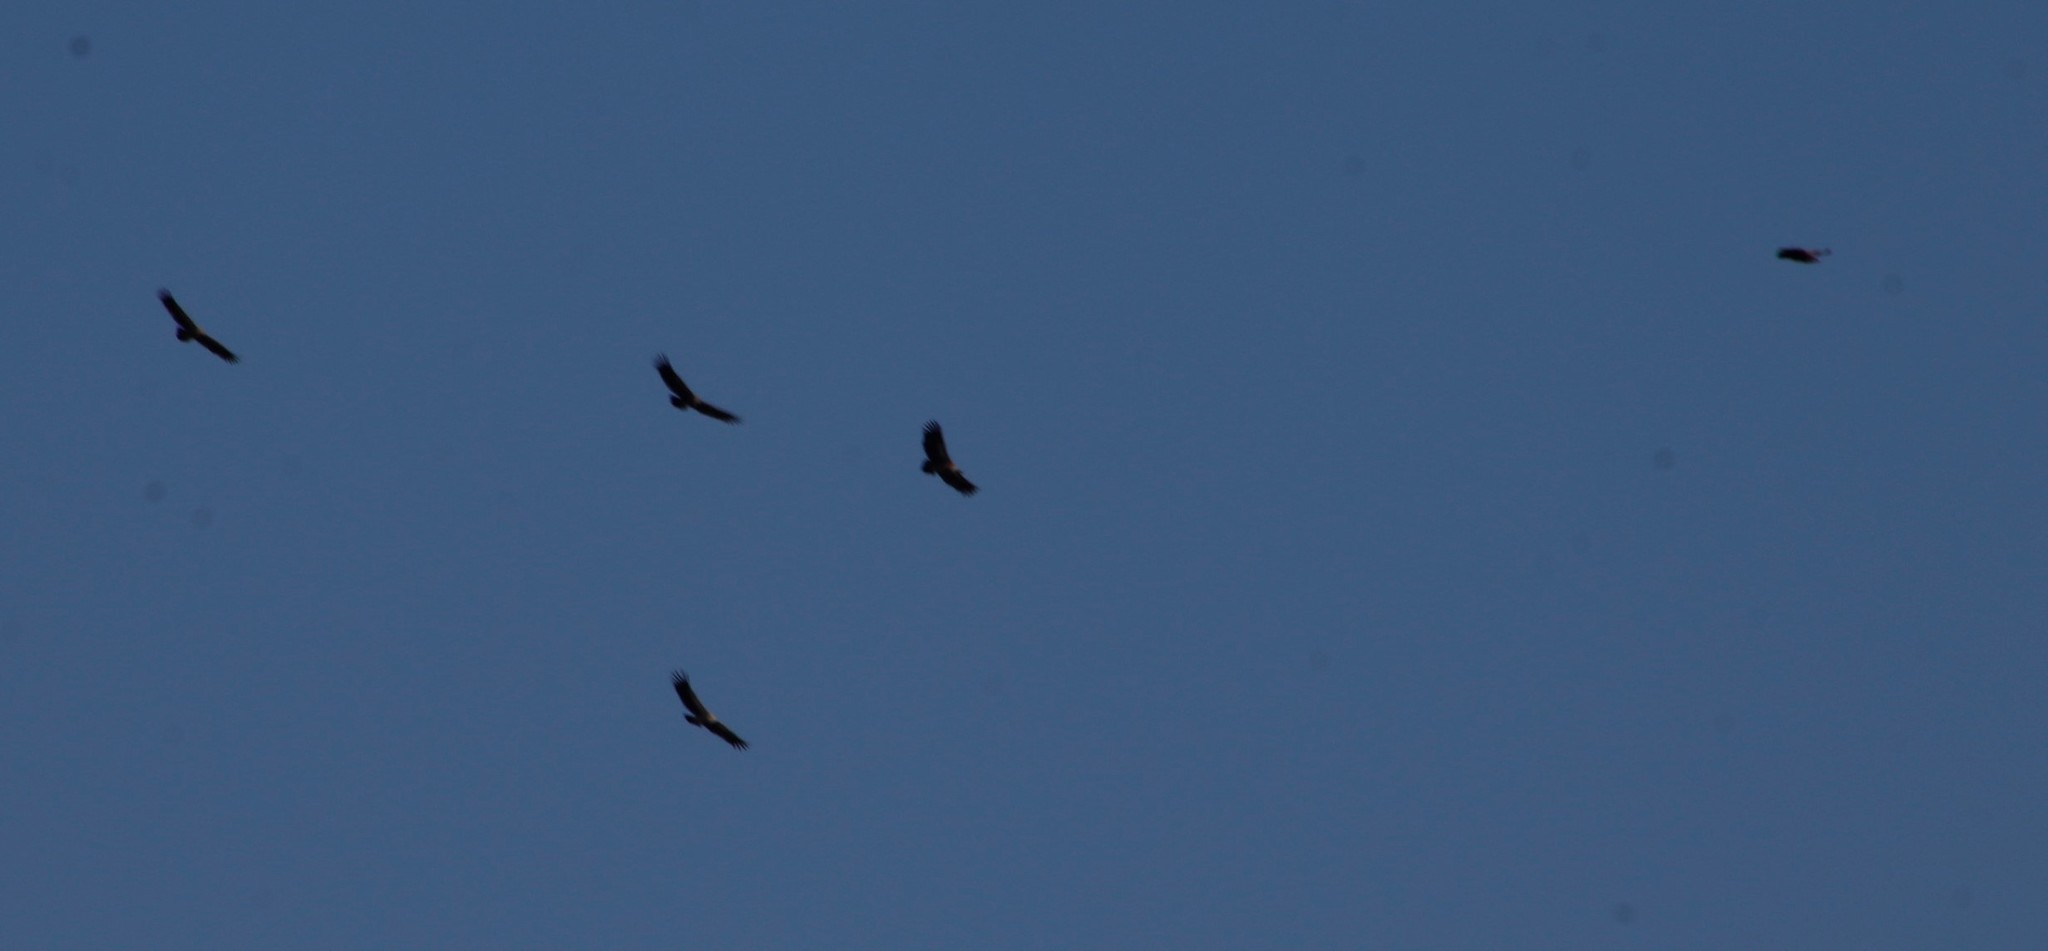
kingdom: Animalia
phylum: Chordata
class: Aves
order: Accipitriformes
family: Accipitridae
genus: Gyps
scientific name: Gyps africanus
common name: White-backed vulture
